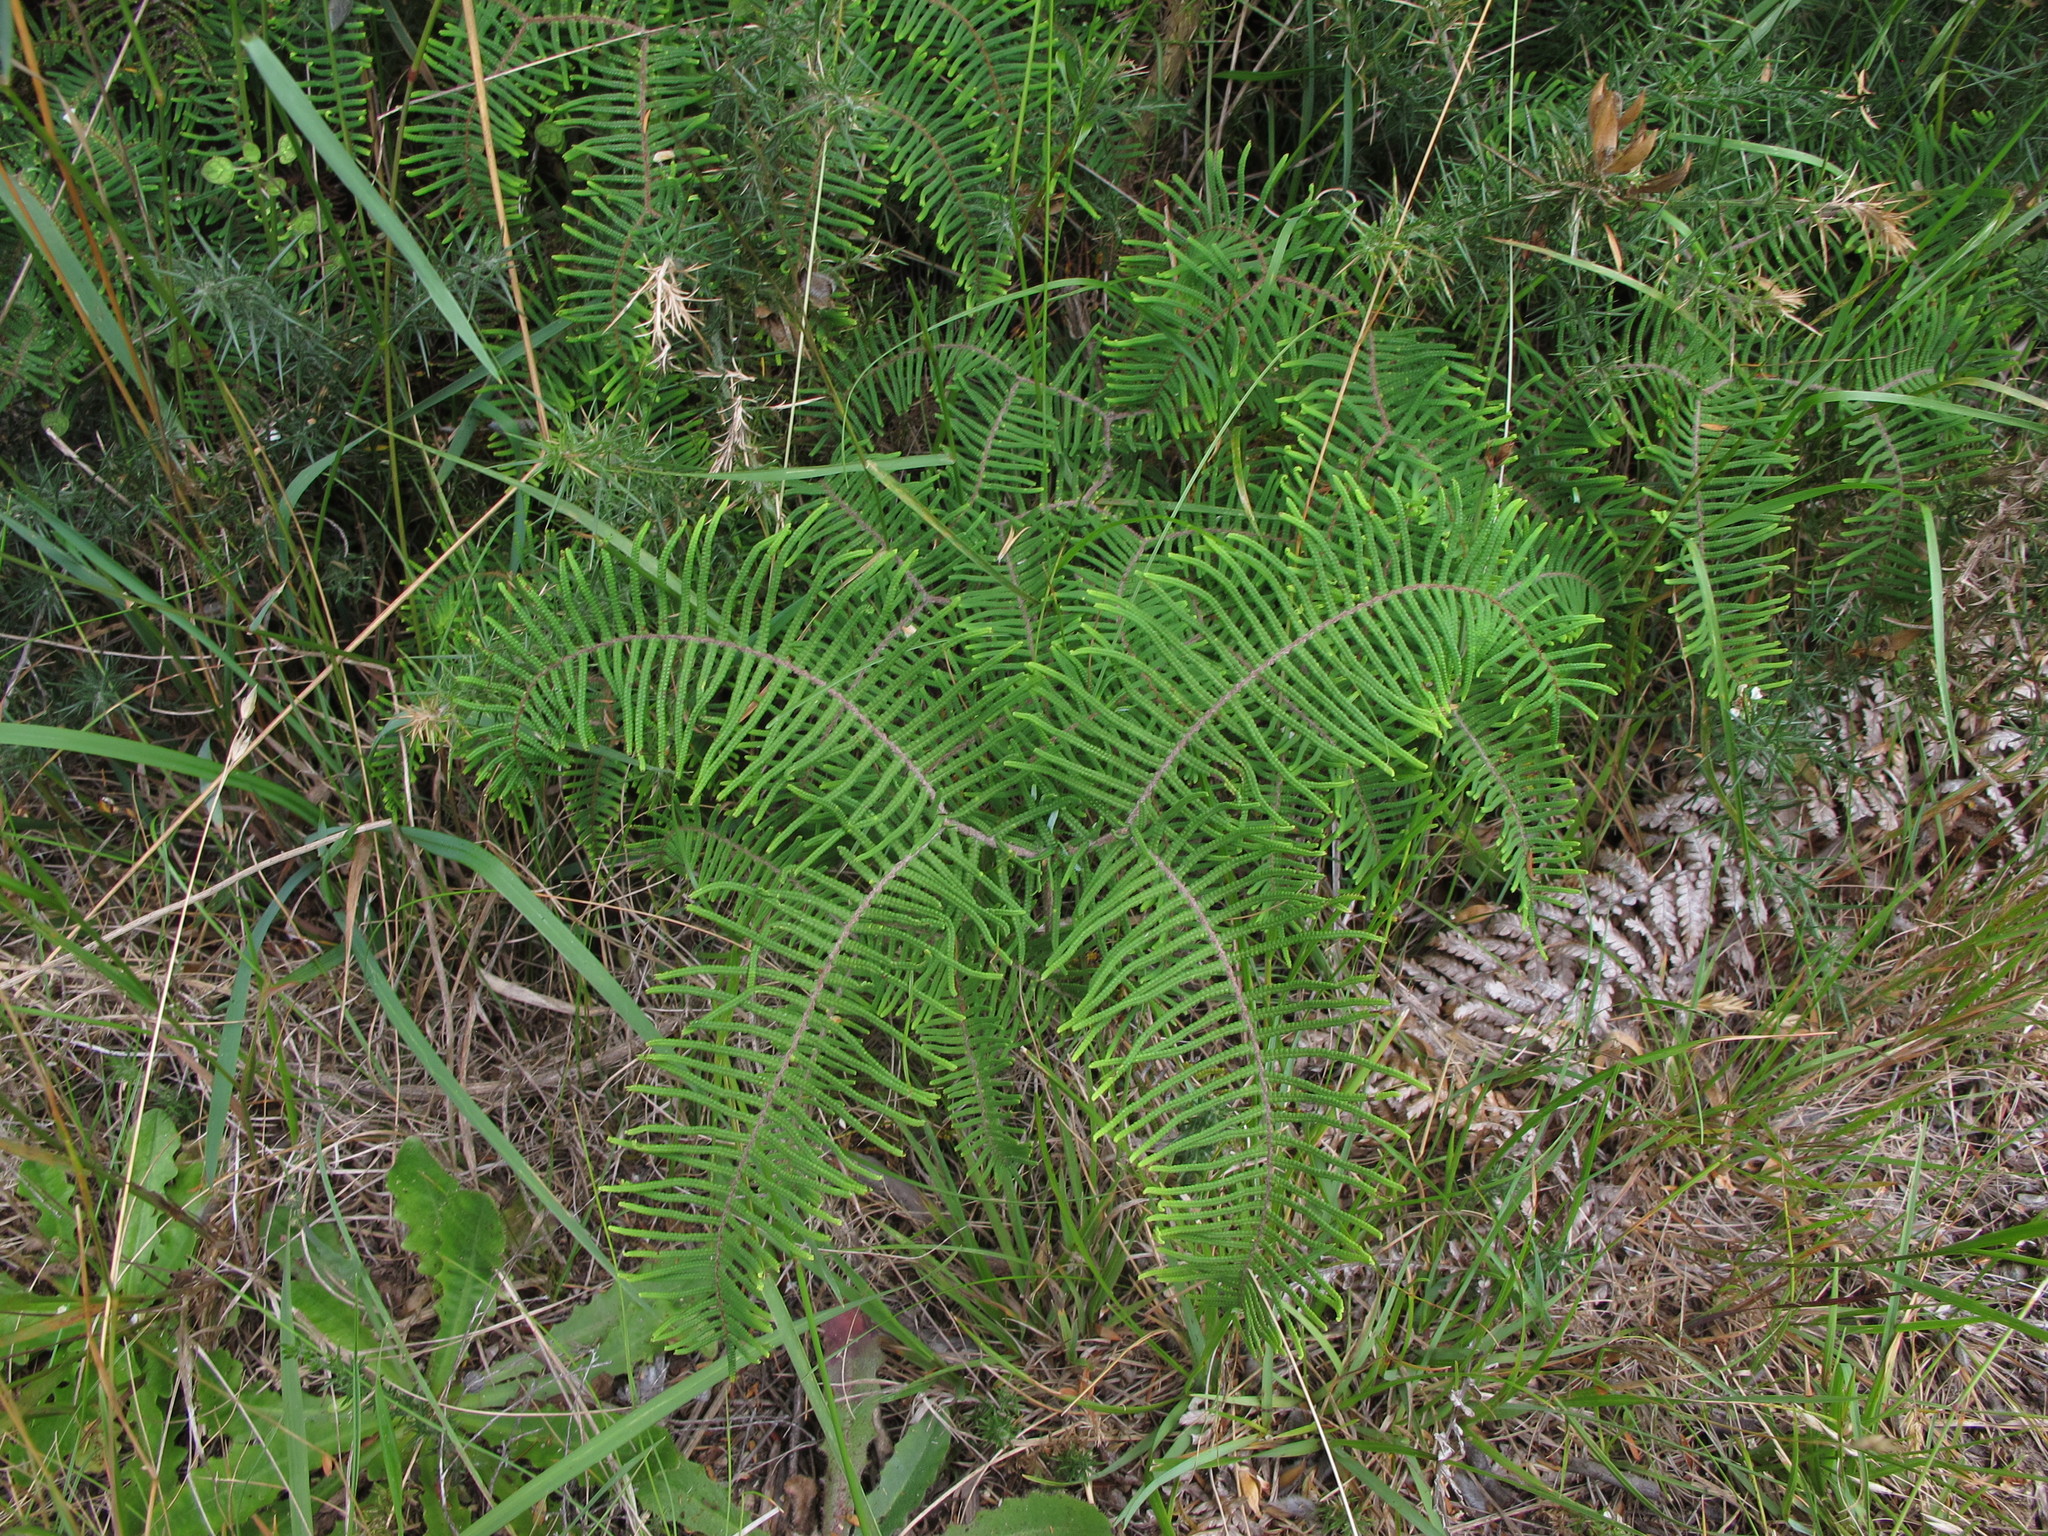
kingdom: Plantae
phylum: Tracheophyta
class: Polypodiopsida
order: Gleicheniales
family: Gleicheniaceae
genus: Gleichenia
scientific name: Gleichenia dicarpa
